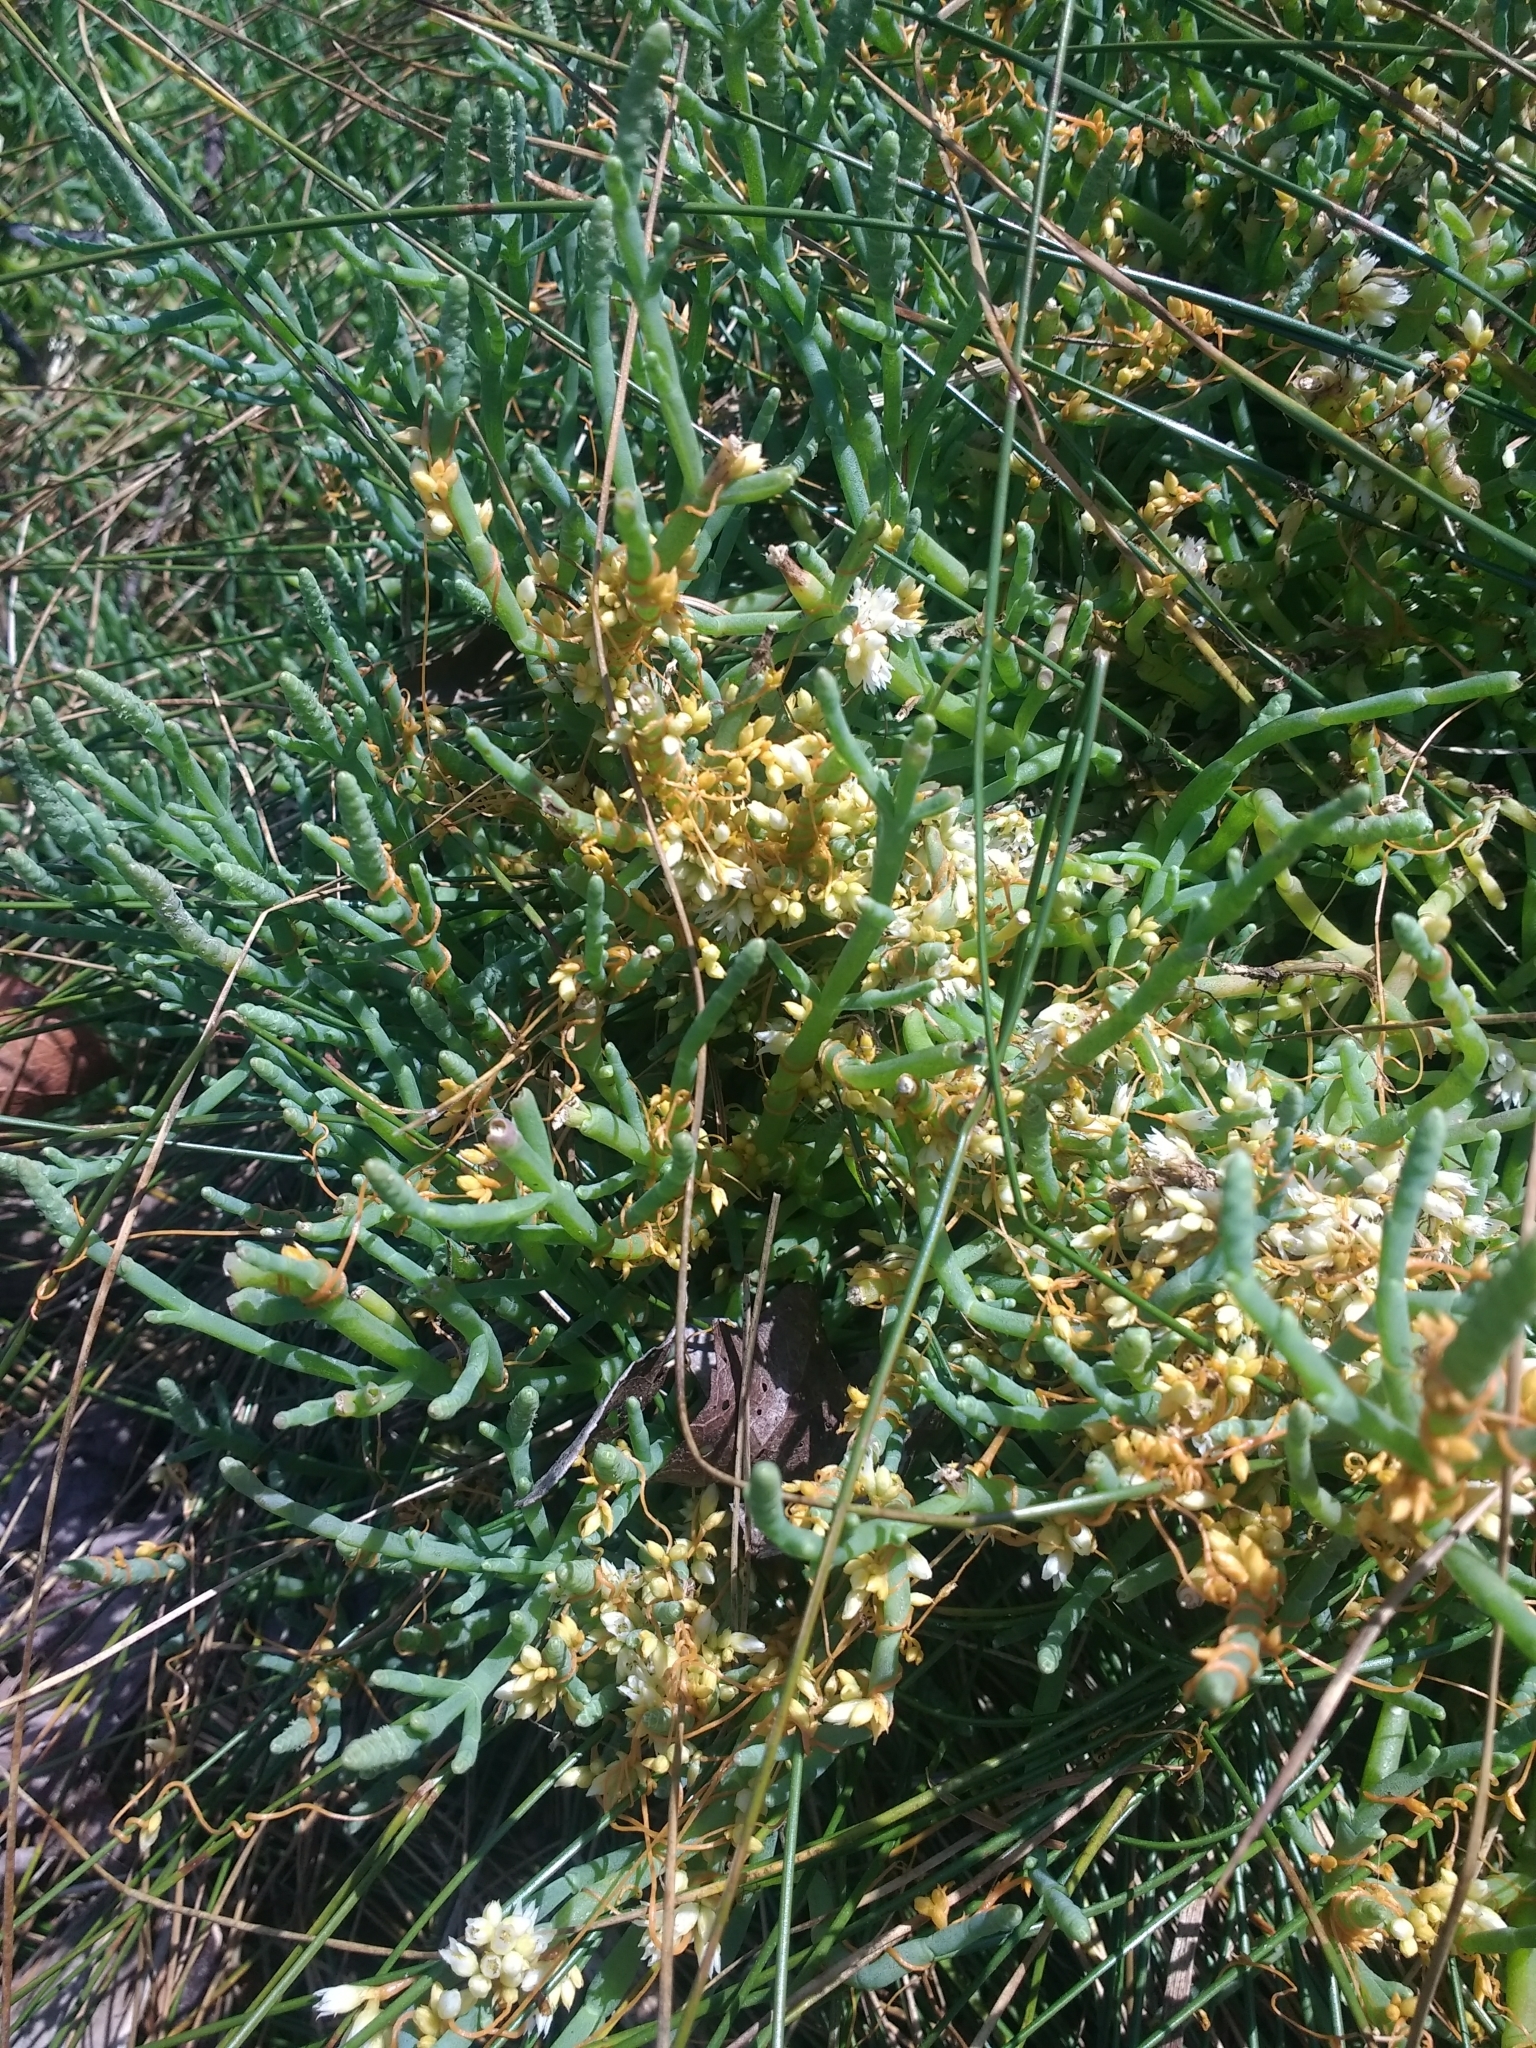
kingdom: Plantae
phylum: Tracheophyta
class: Magnoliopsida
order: Solanales
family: Convolvulaceae
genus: Cuscuta
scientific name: Cuscuta pacifica
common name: Large saltmarsh dodder
